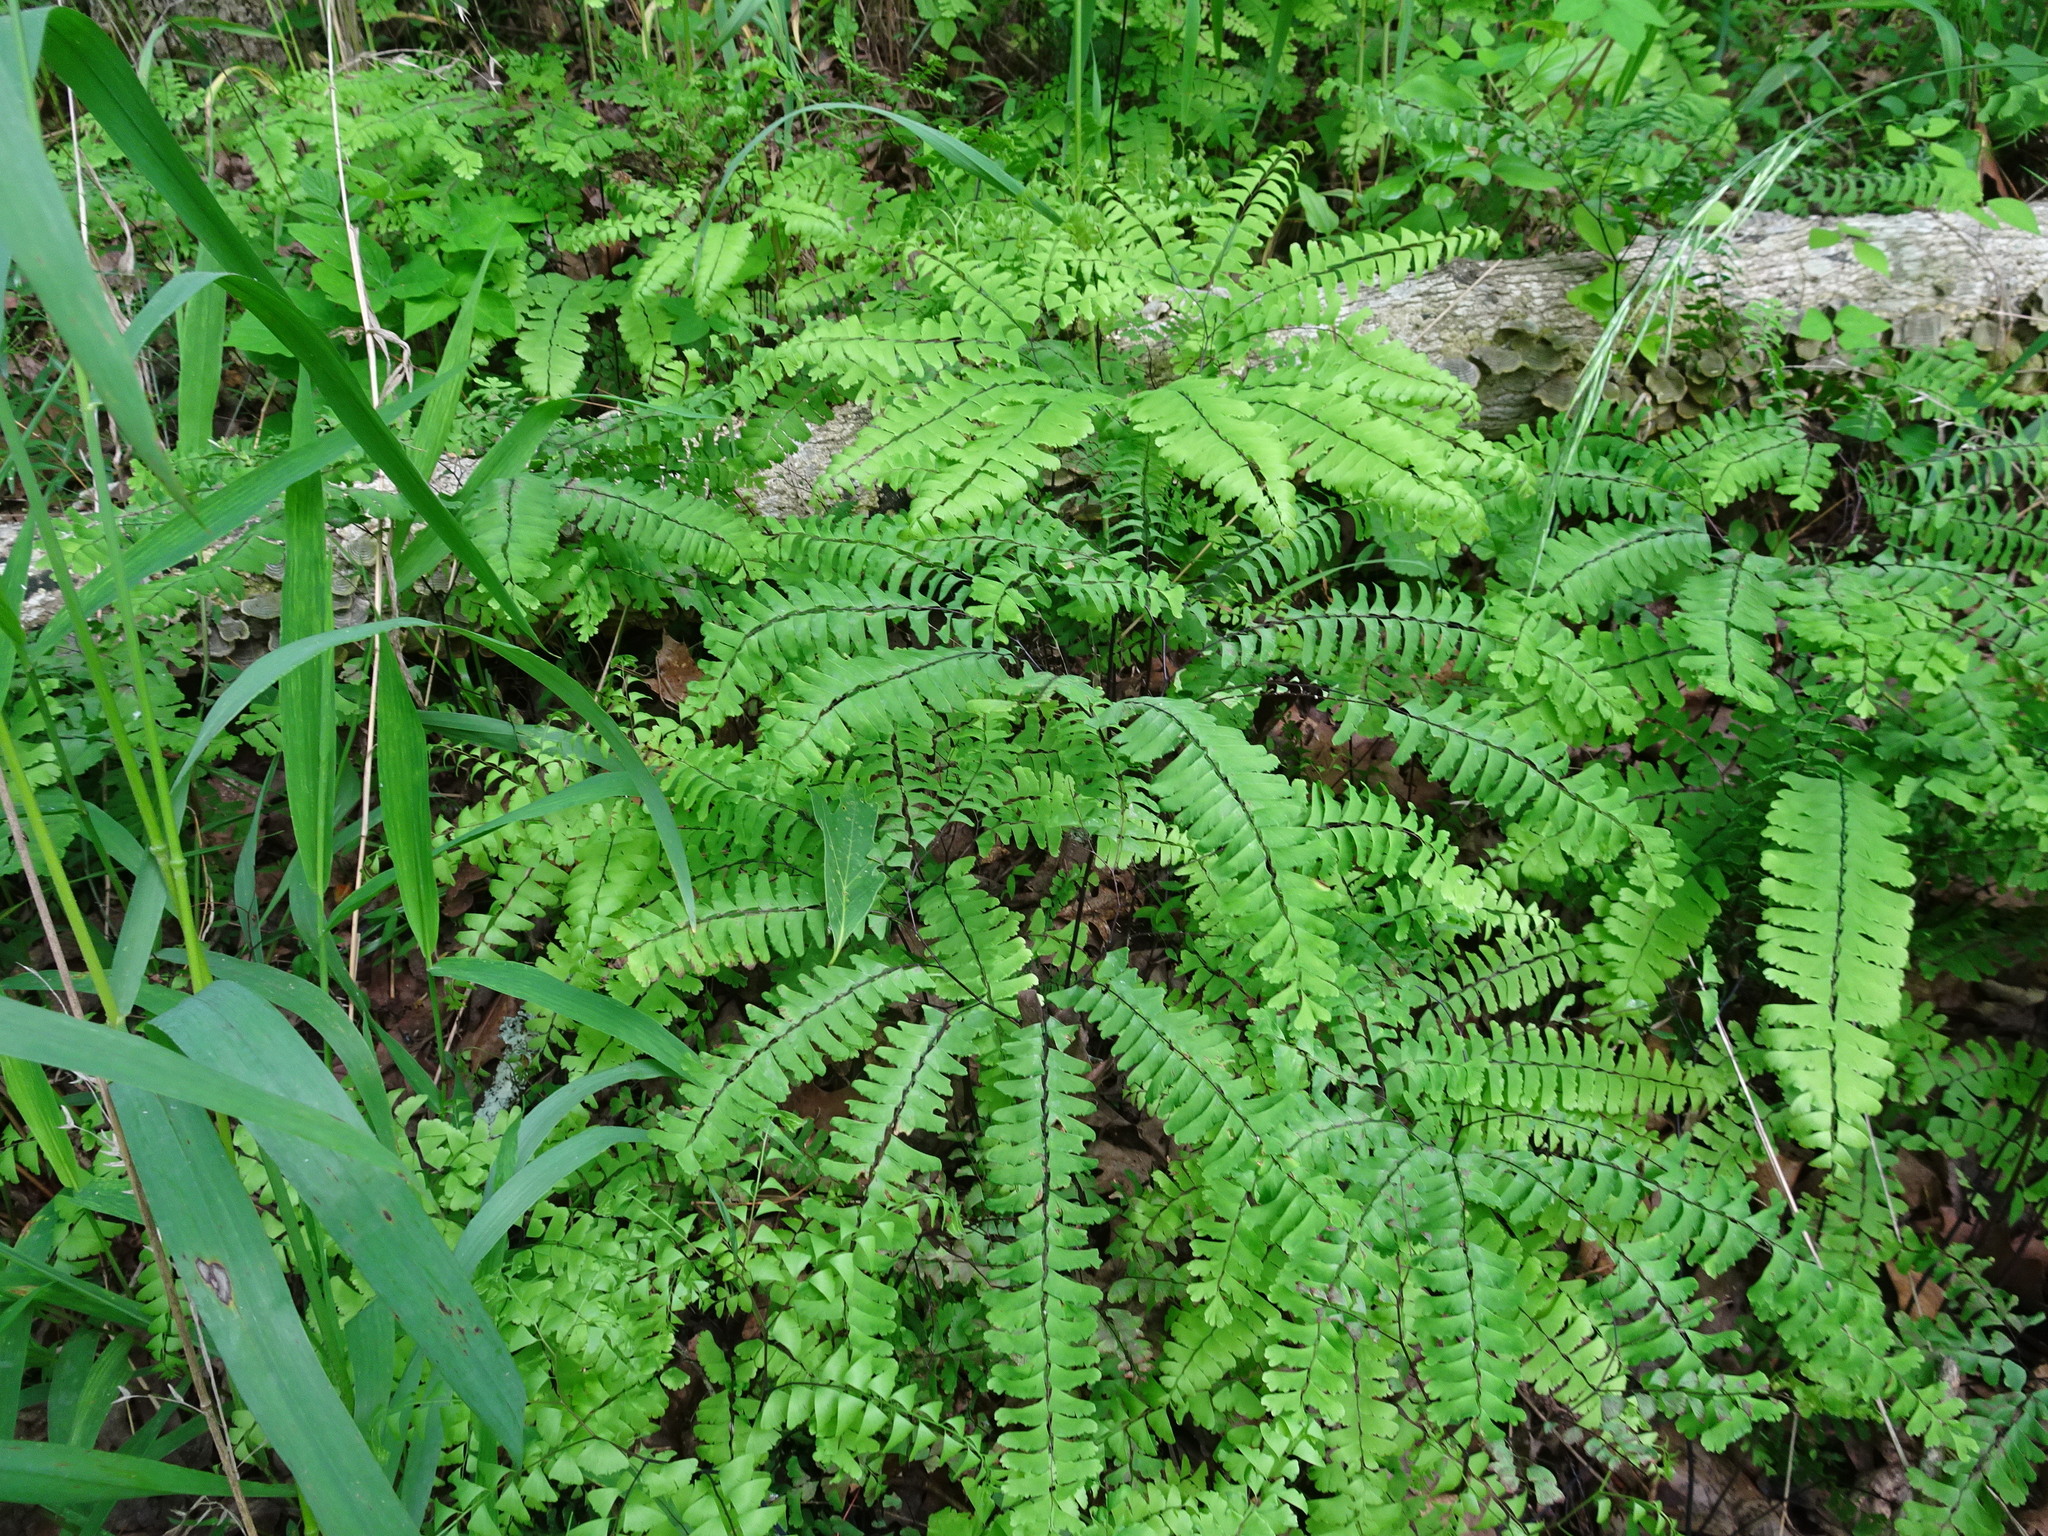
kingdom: Plantae
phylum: Tracheophyta
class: Polypodiopsida
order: Polypodiales
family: Pteridaceae
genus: Adiantum
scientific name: Adiantum pedatum
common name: Five-finger fern
